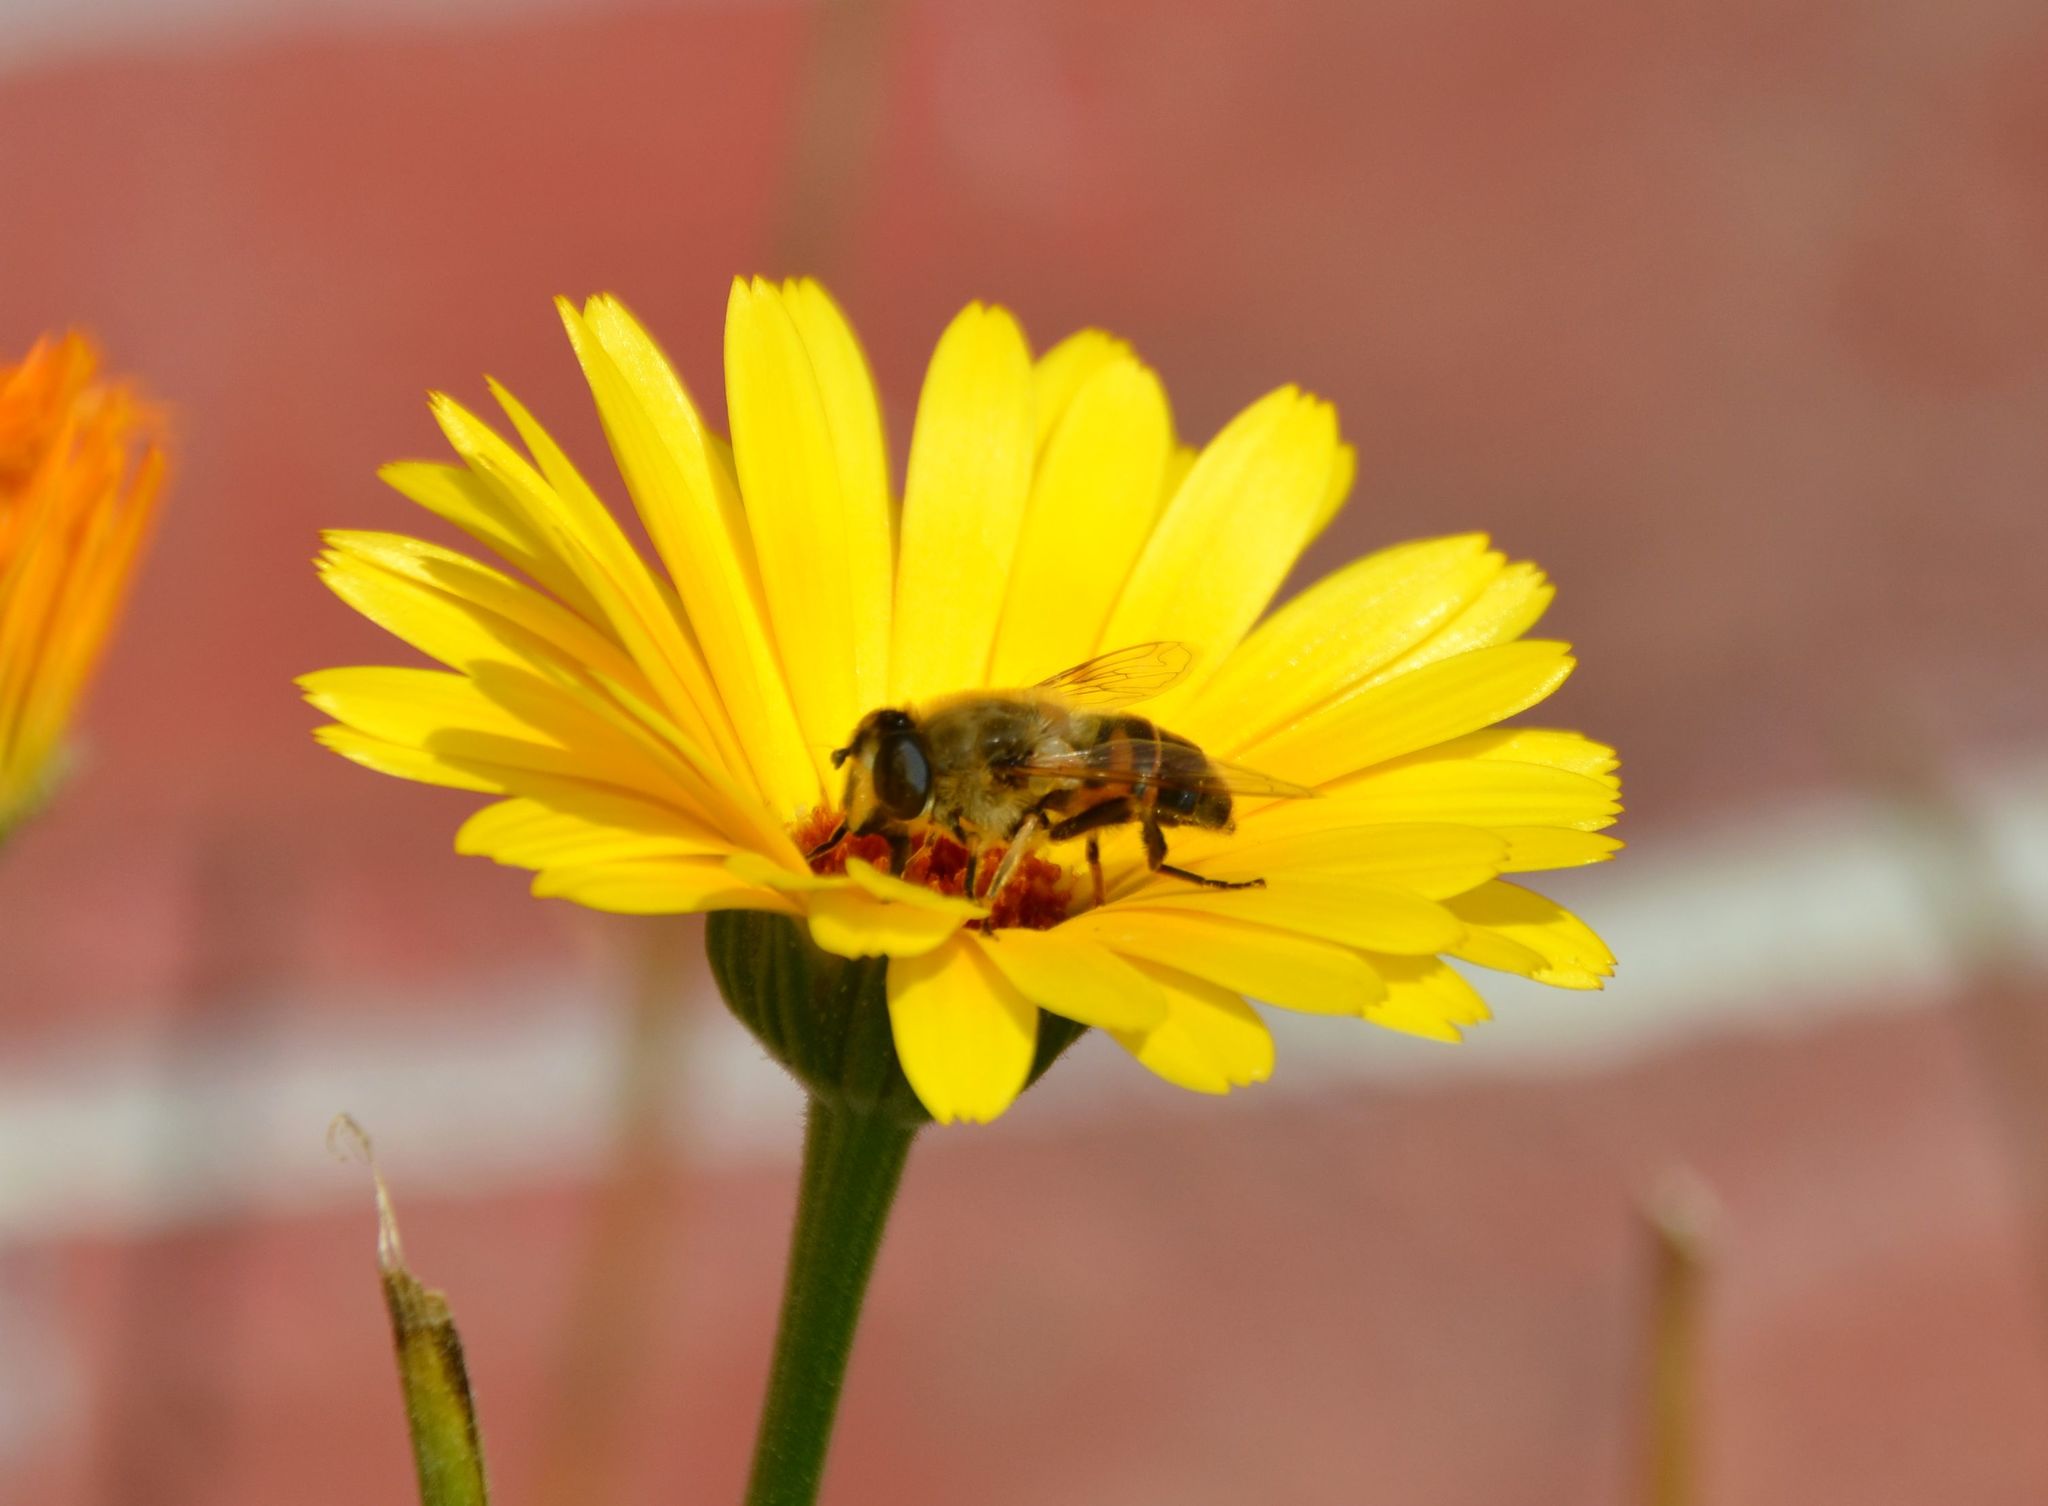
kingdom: Animalia
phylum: Arthropoda
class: Insecta
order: Diptera
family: Syrphidae
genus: Eristalis
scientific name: Eristalis tenax
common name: Drone fly
